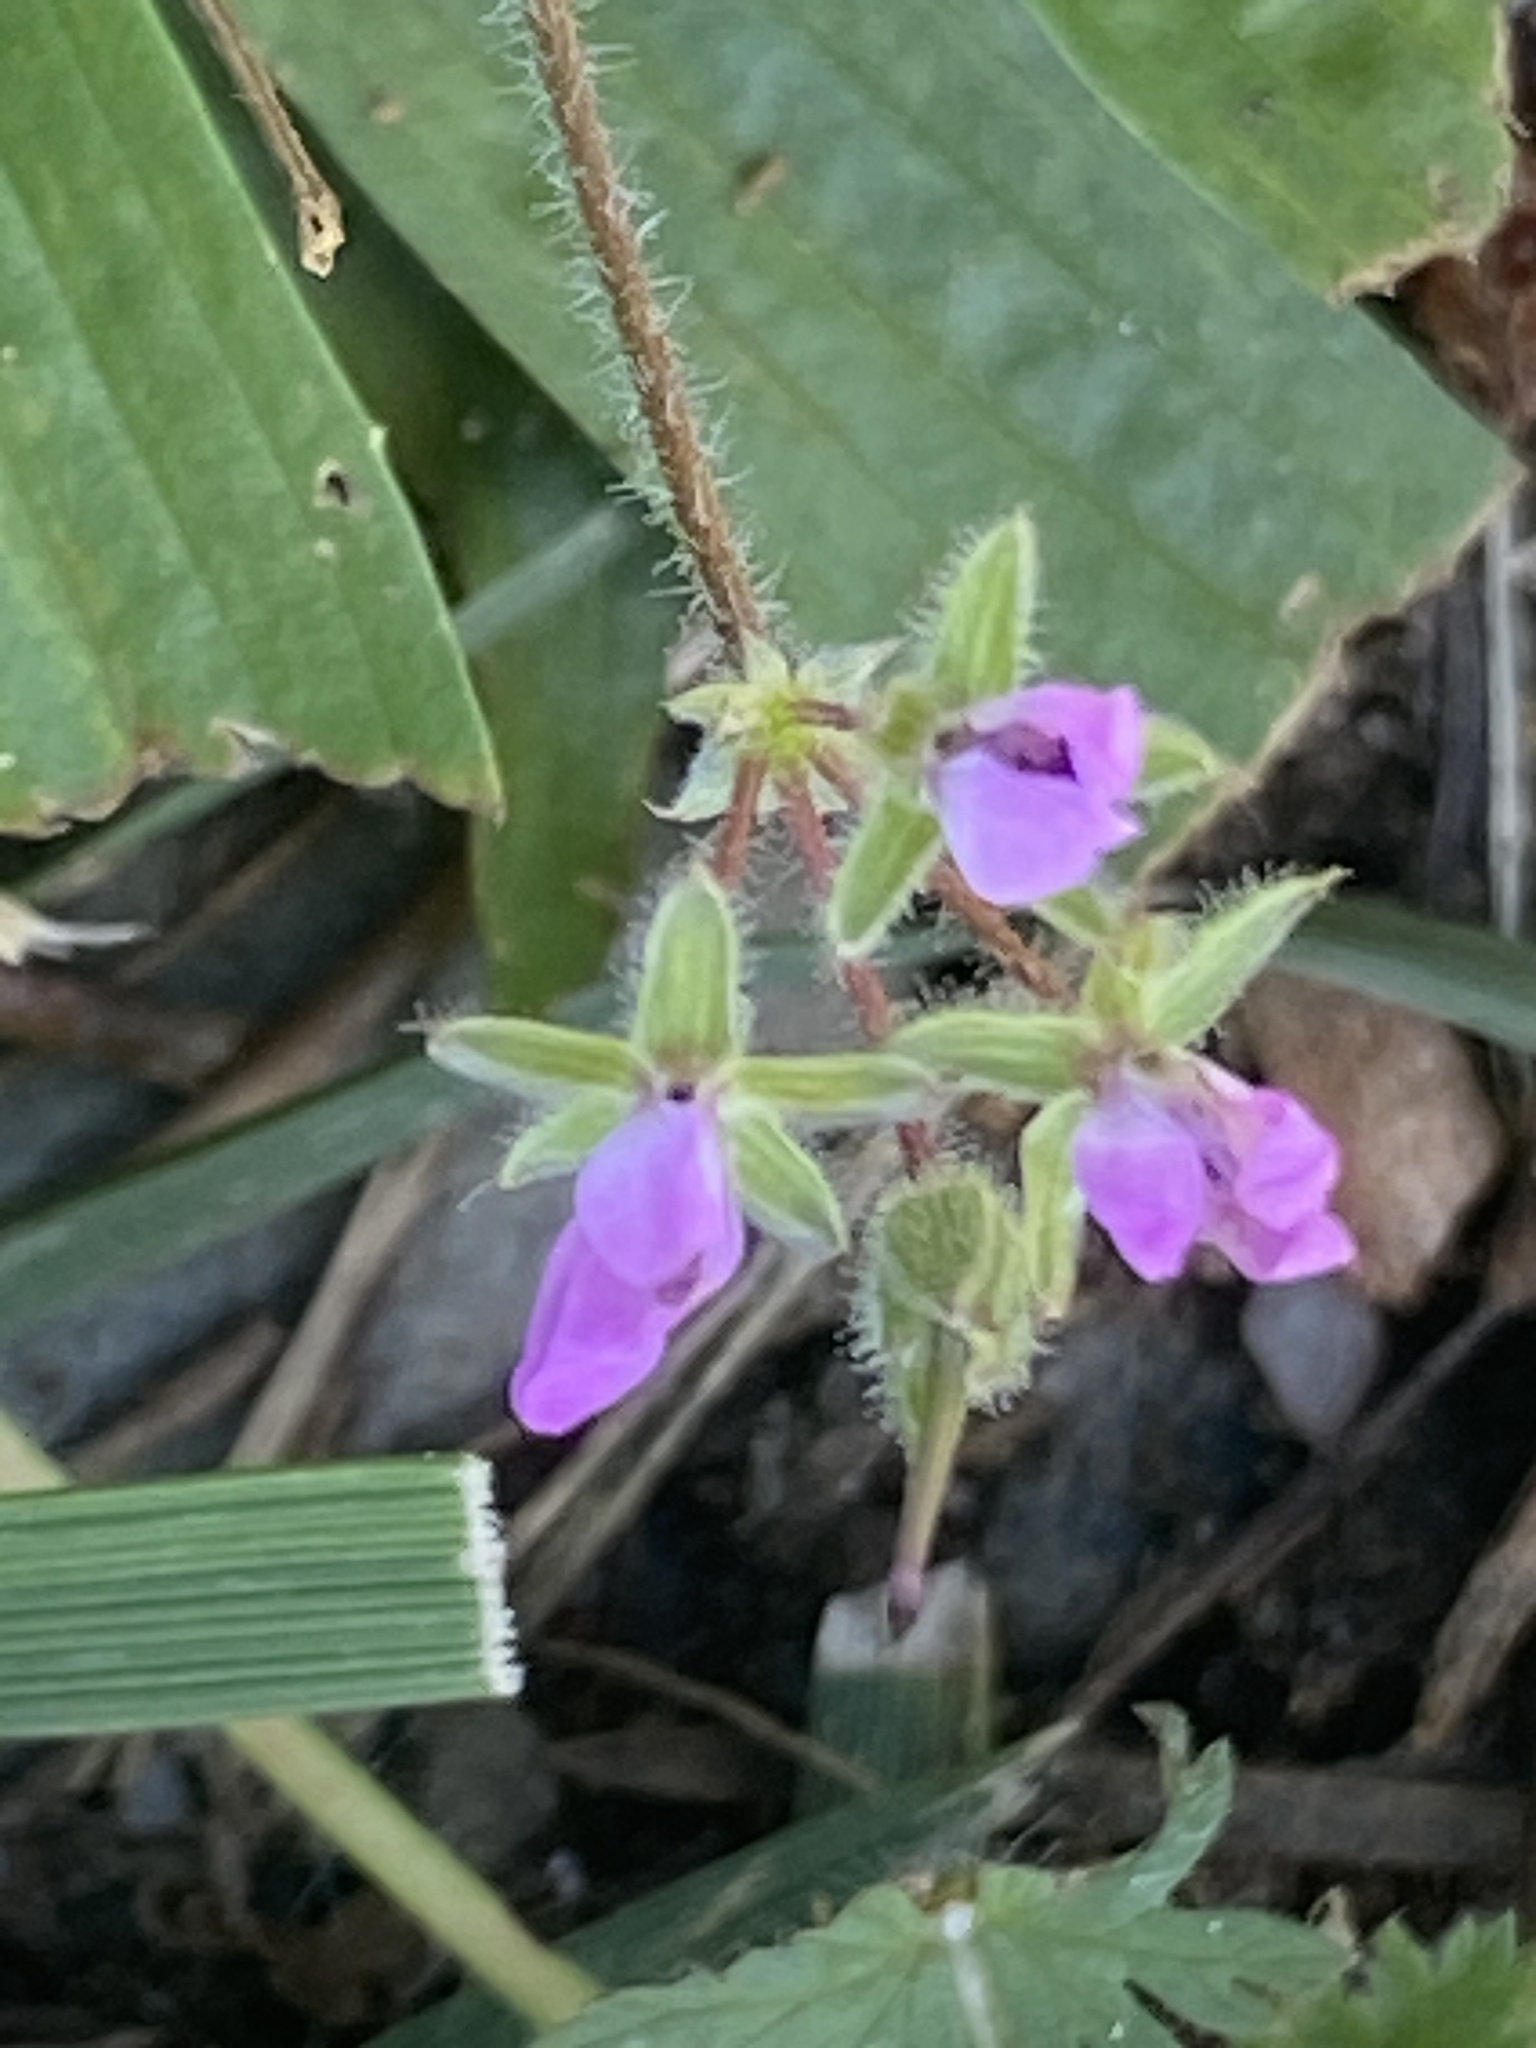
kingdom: Plantae
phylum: Tracheophyta
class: Magnoliopsida
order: Geraniales
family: Geraniaceae
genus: Erodium
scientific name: Erodium cicutarium
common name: Common stork's-bill
